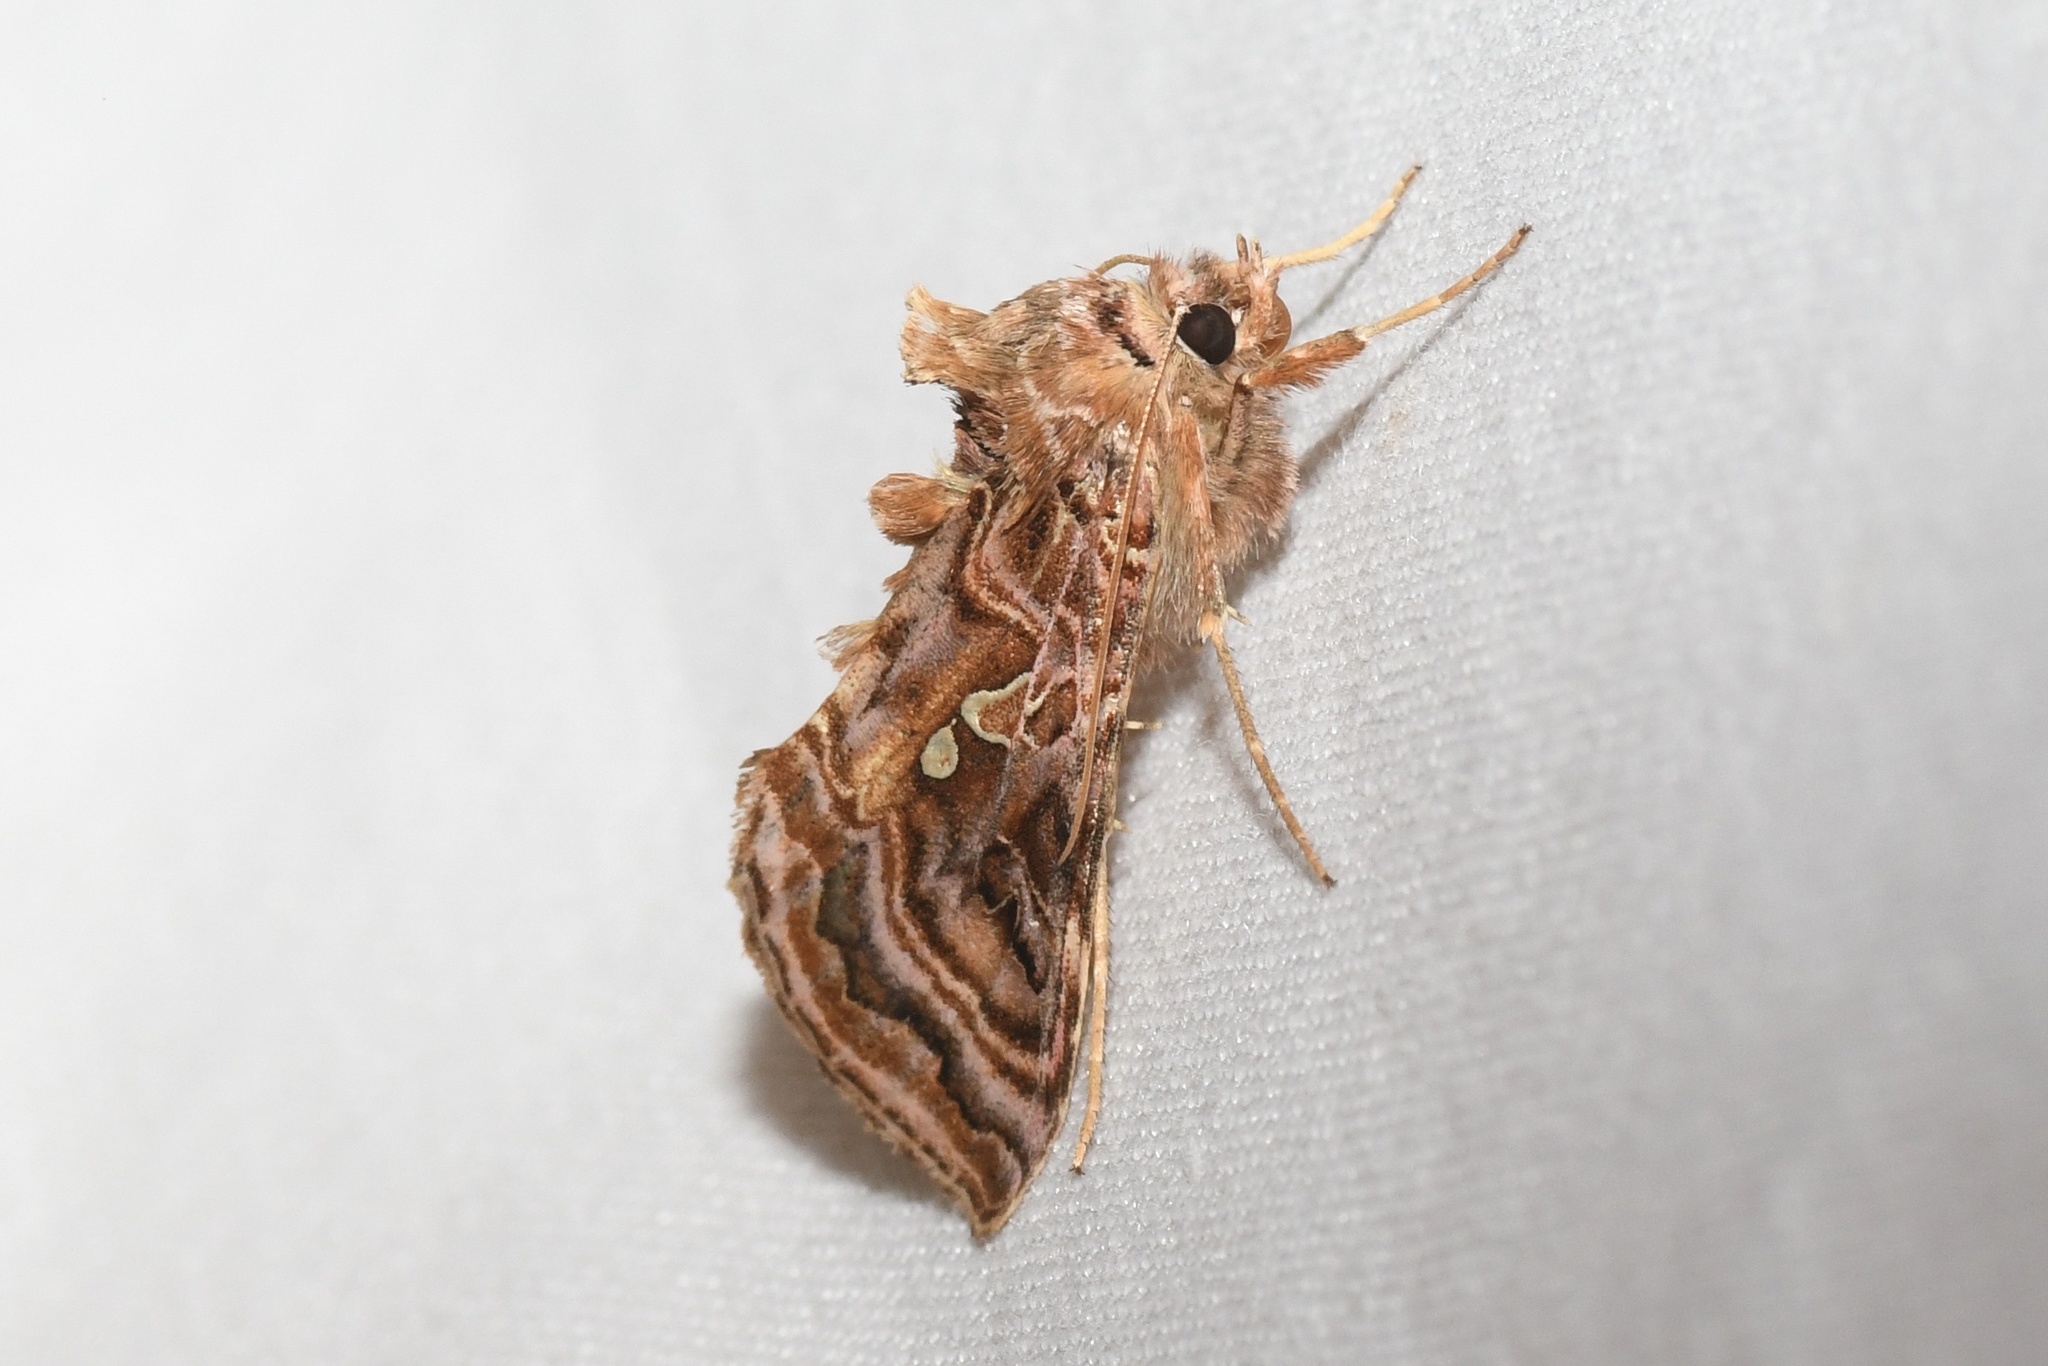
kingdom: Animalia
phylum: Arthropoda
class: Insecta
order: Lepidoptera
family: Noctuidae
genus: Autographa
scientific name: Autographa mappa
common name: Wavy chestnut y moth
